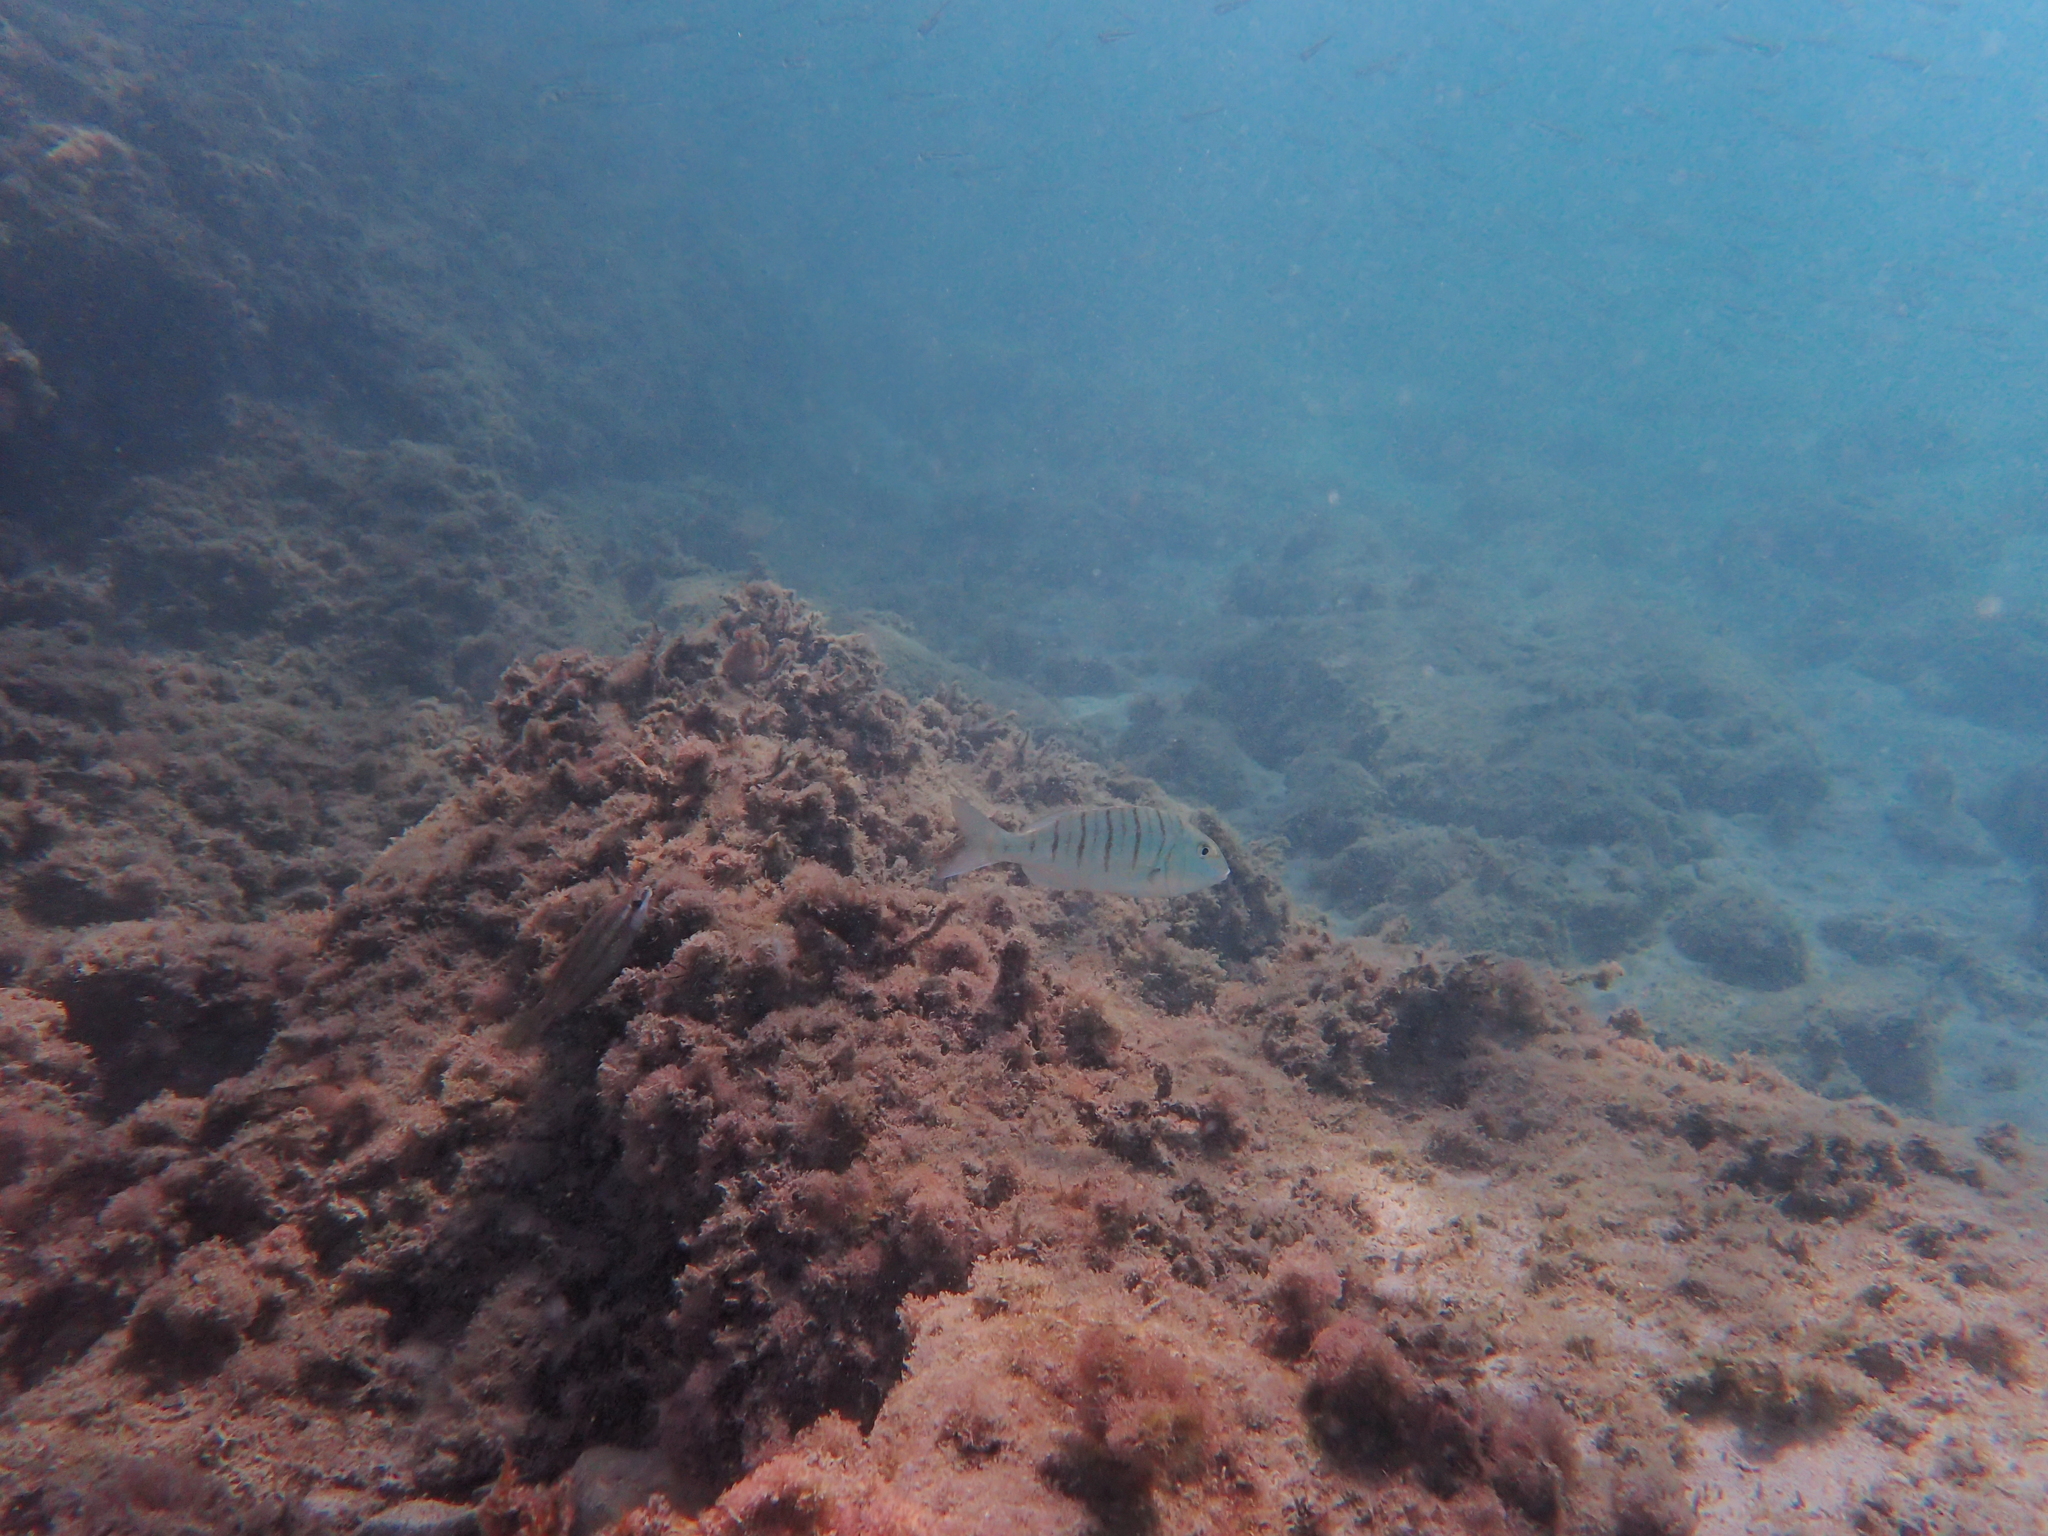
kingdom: Animalia
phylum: Chordata
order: Perciformes
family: Sparidae
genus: Lithognathus
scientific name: Lithognathus mormyrus
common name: Sand steenbras
